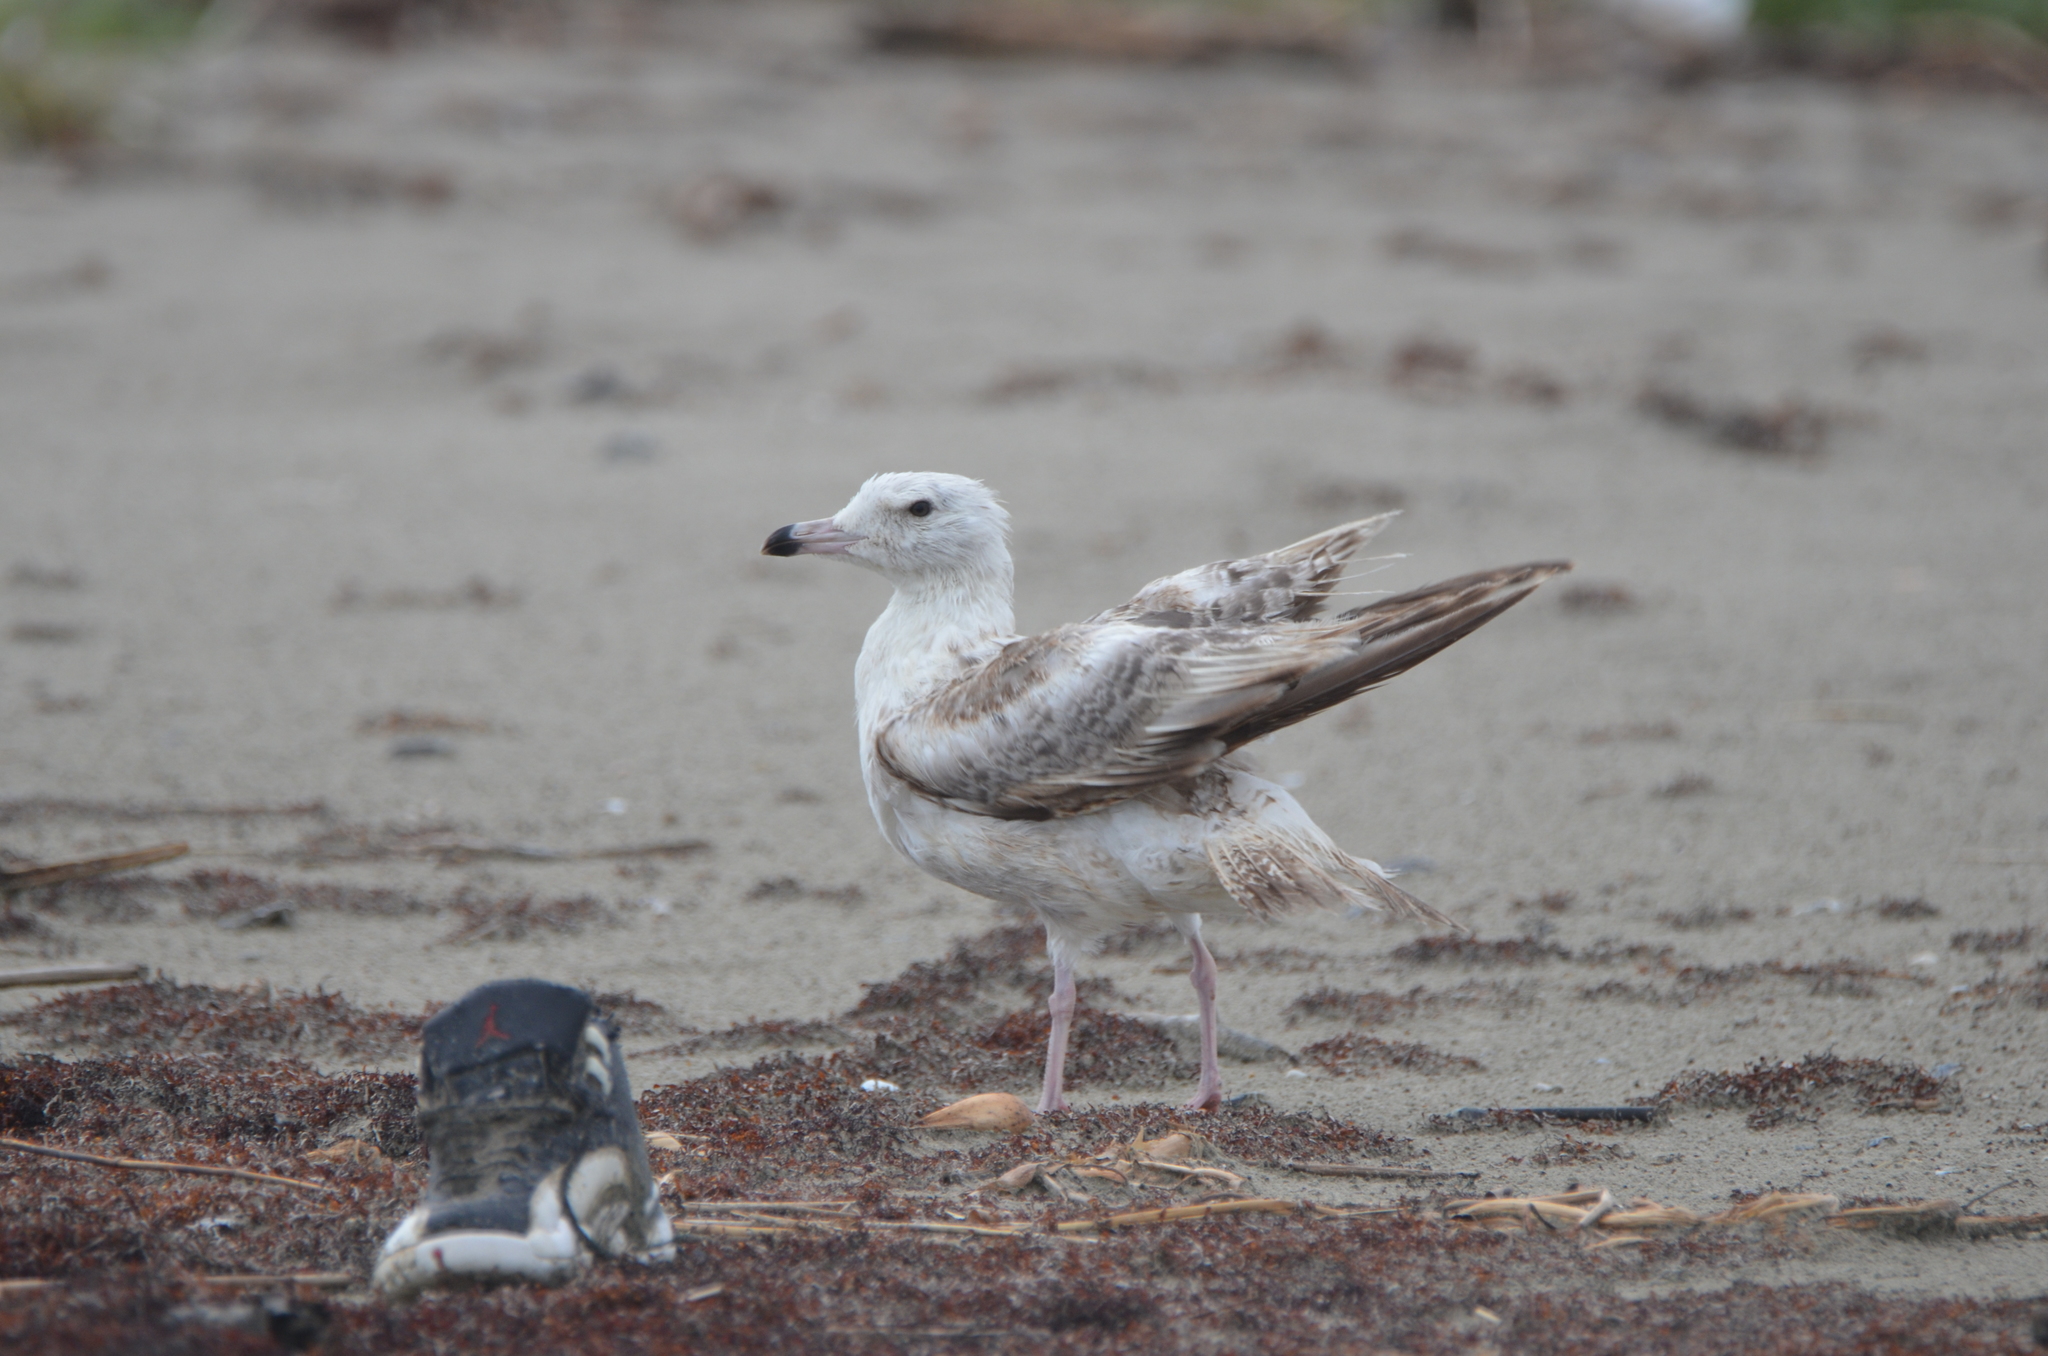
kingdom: Animalia
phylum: Chordata
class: Aves
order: Charadriiformes
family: Laridae
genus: Larus
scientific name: Larus argentatus
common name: Herring gull
